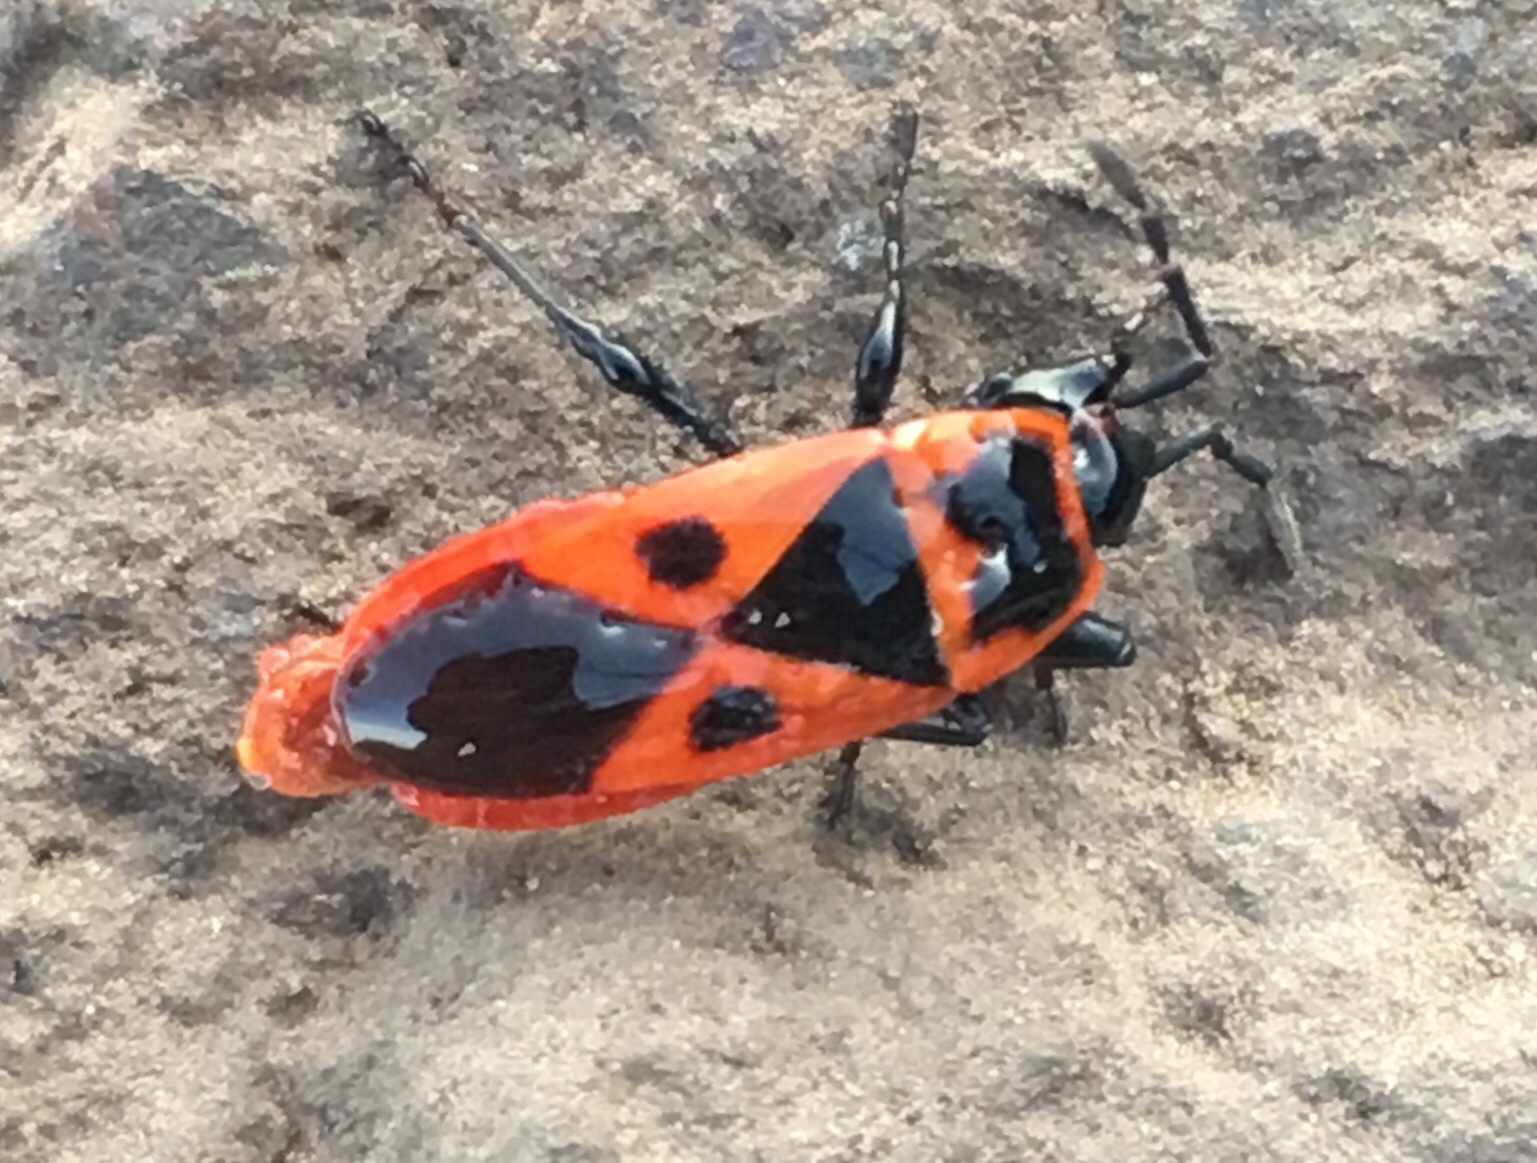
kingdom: Animalia
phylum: Arthropoda
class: Insecta
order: Hemiptera
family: Pyrrhocoridae
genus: Scantius
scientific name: Scantius aegyptius
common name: Red bug
